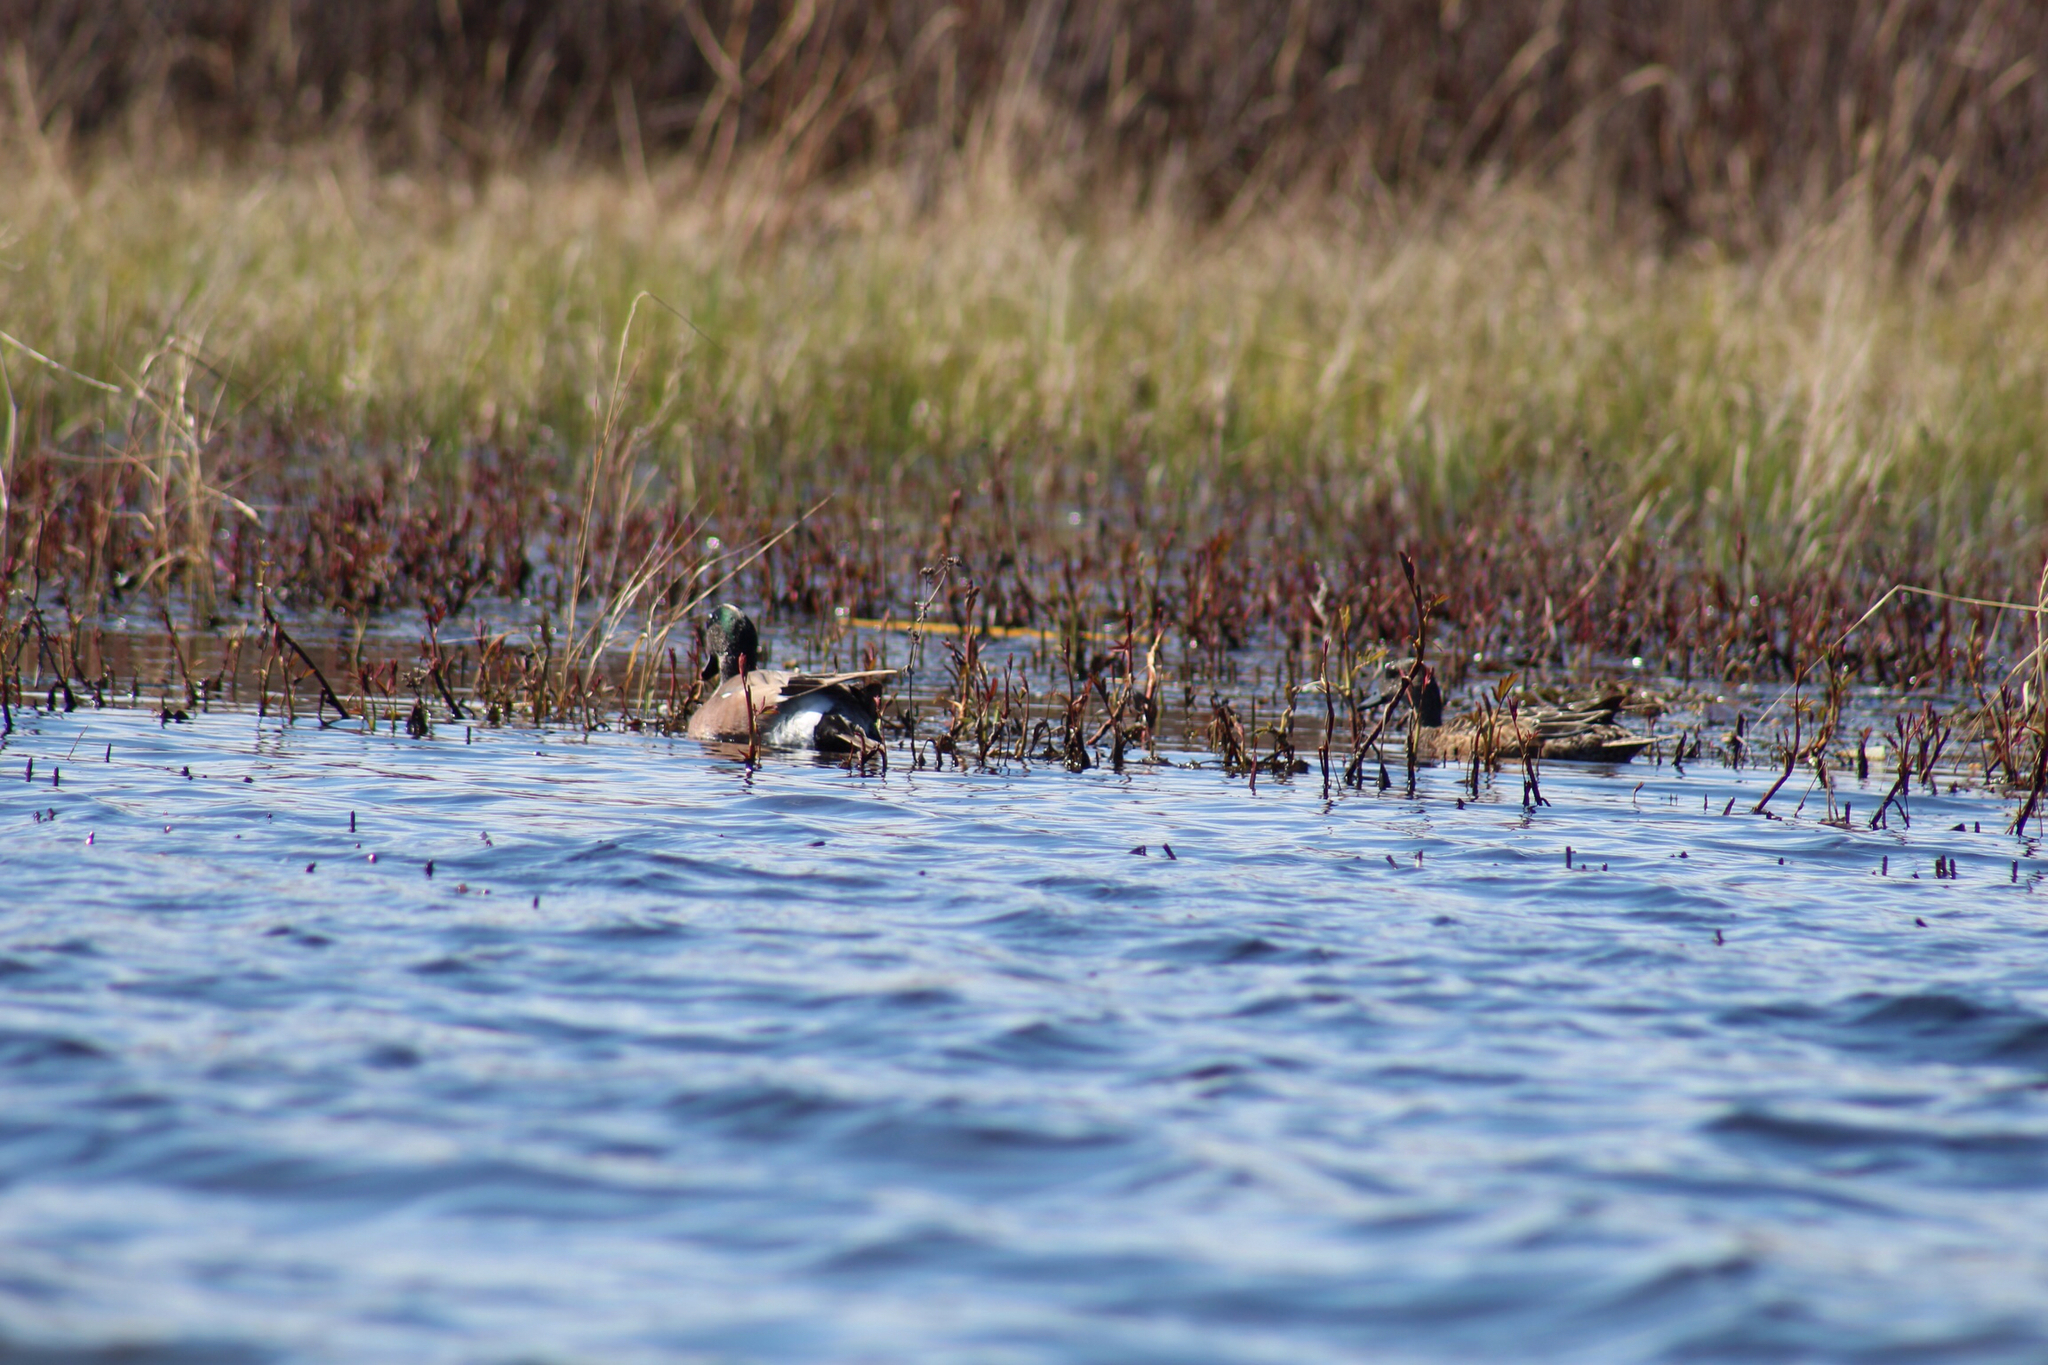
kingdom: Animalia
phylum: Chordata
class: Aves
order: Anseriformes
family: Anatidae
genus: Mareca
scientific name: Mareca americana
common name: American wigeon
